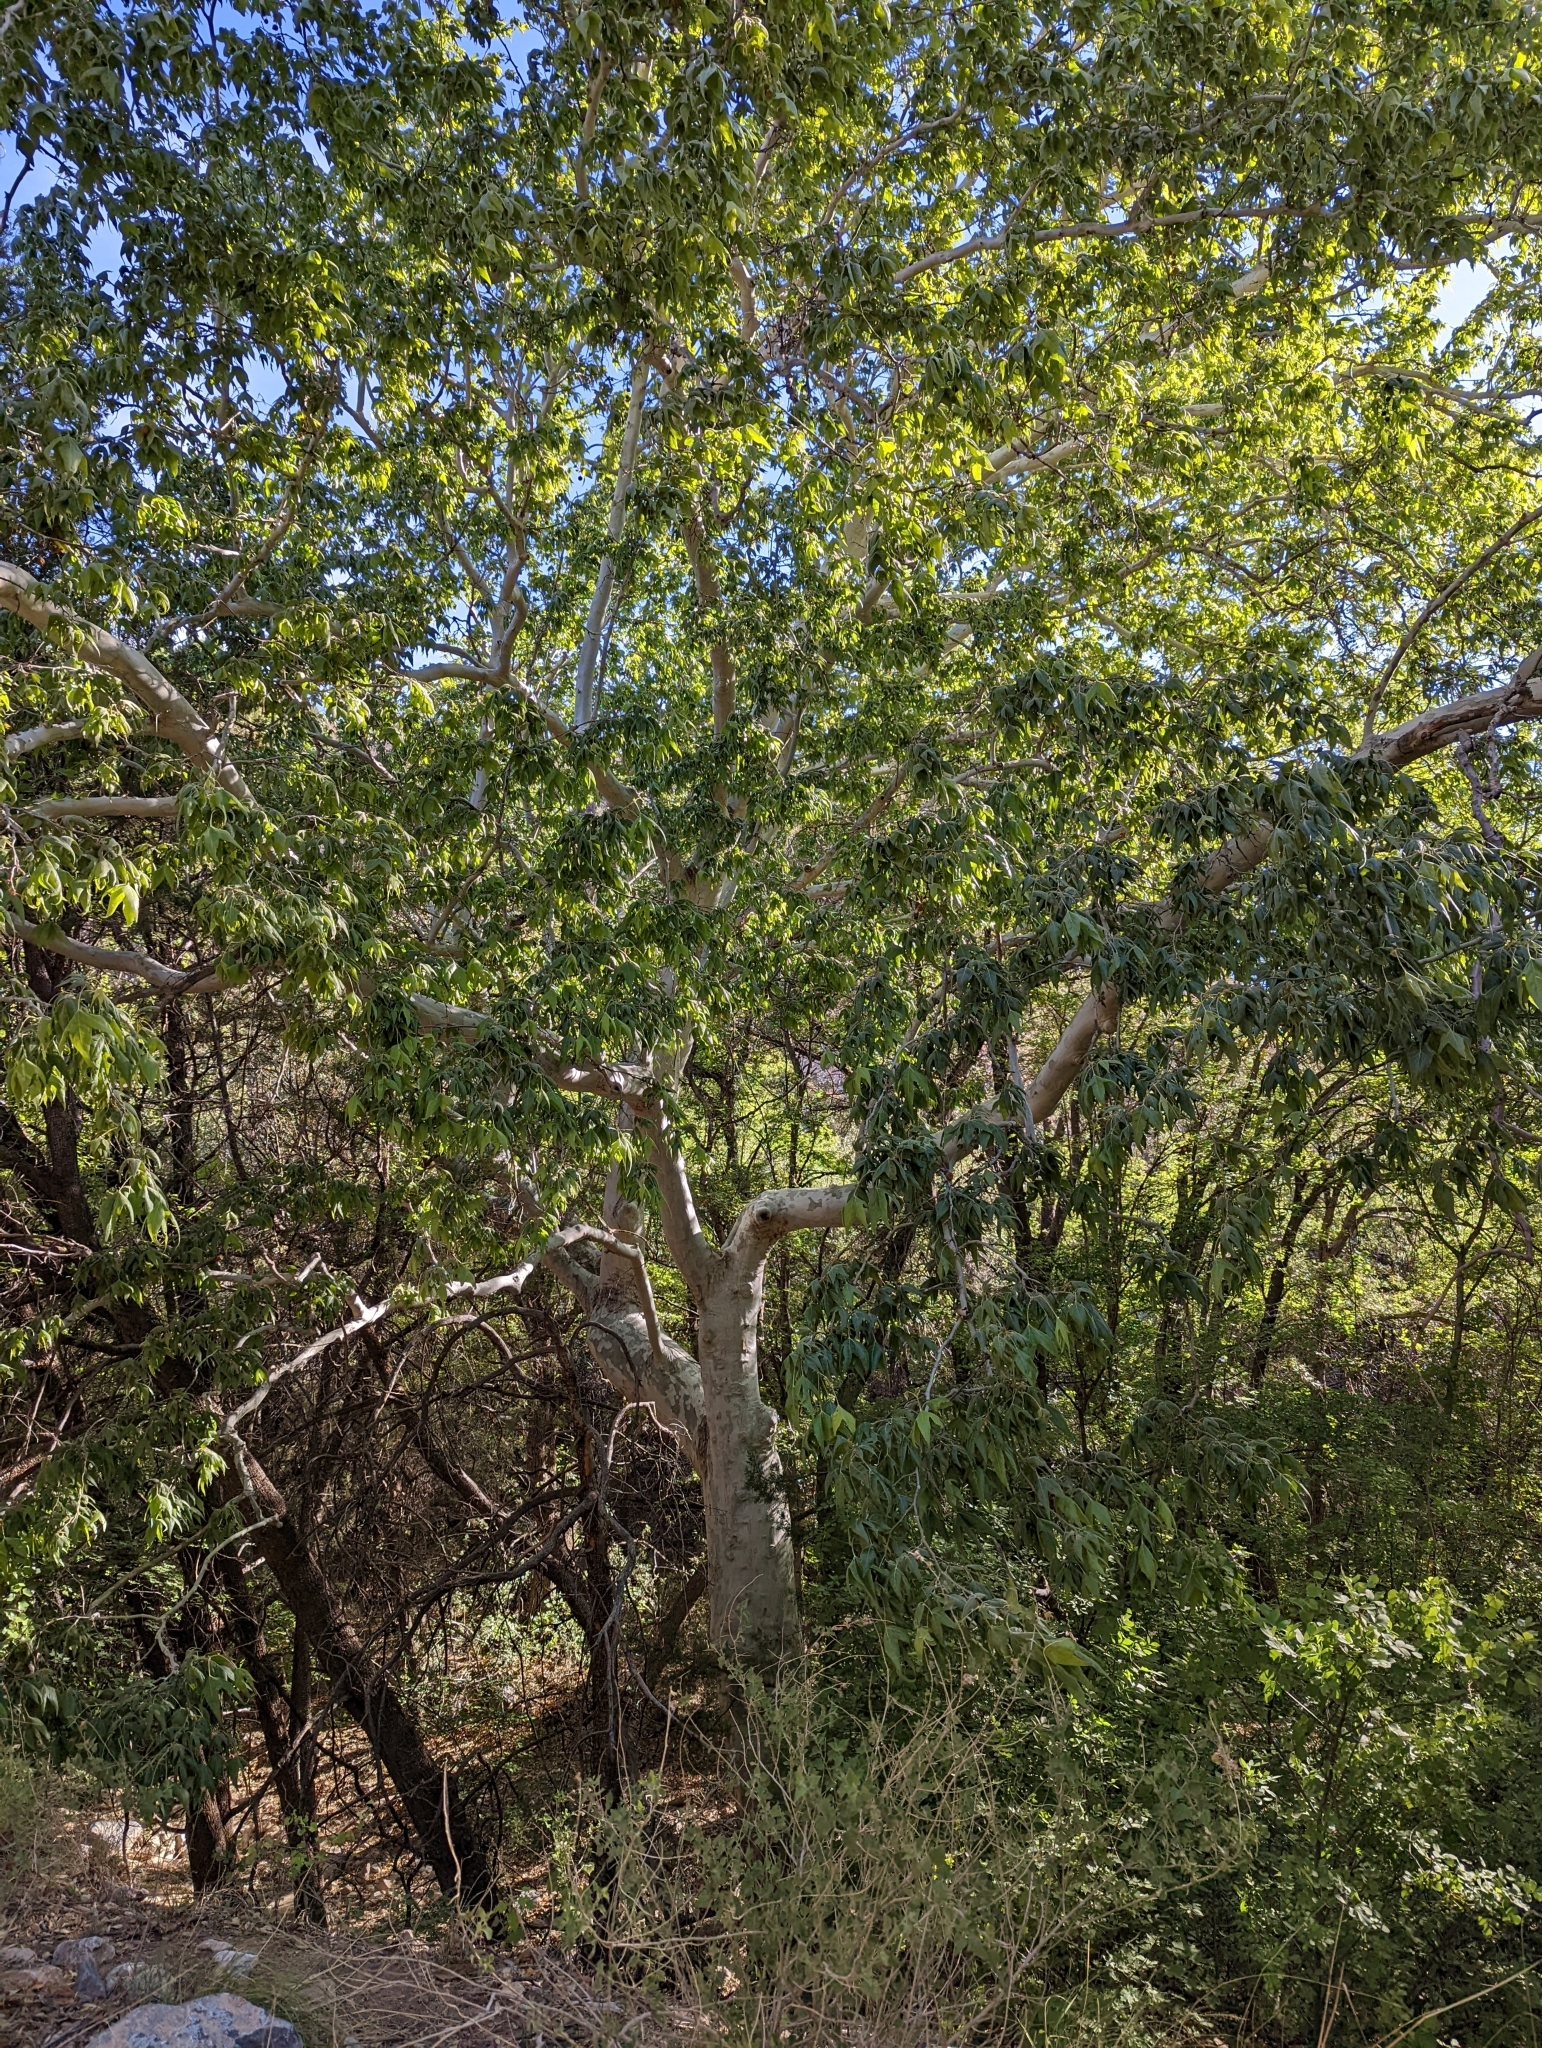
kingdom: Plantae
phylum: Tracheophyta
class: Magnoliopsida
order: Proteales
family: Platanaceae
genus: Platanus
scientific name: Platanus wrightii
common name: Arizona sycamore
